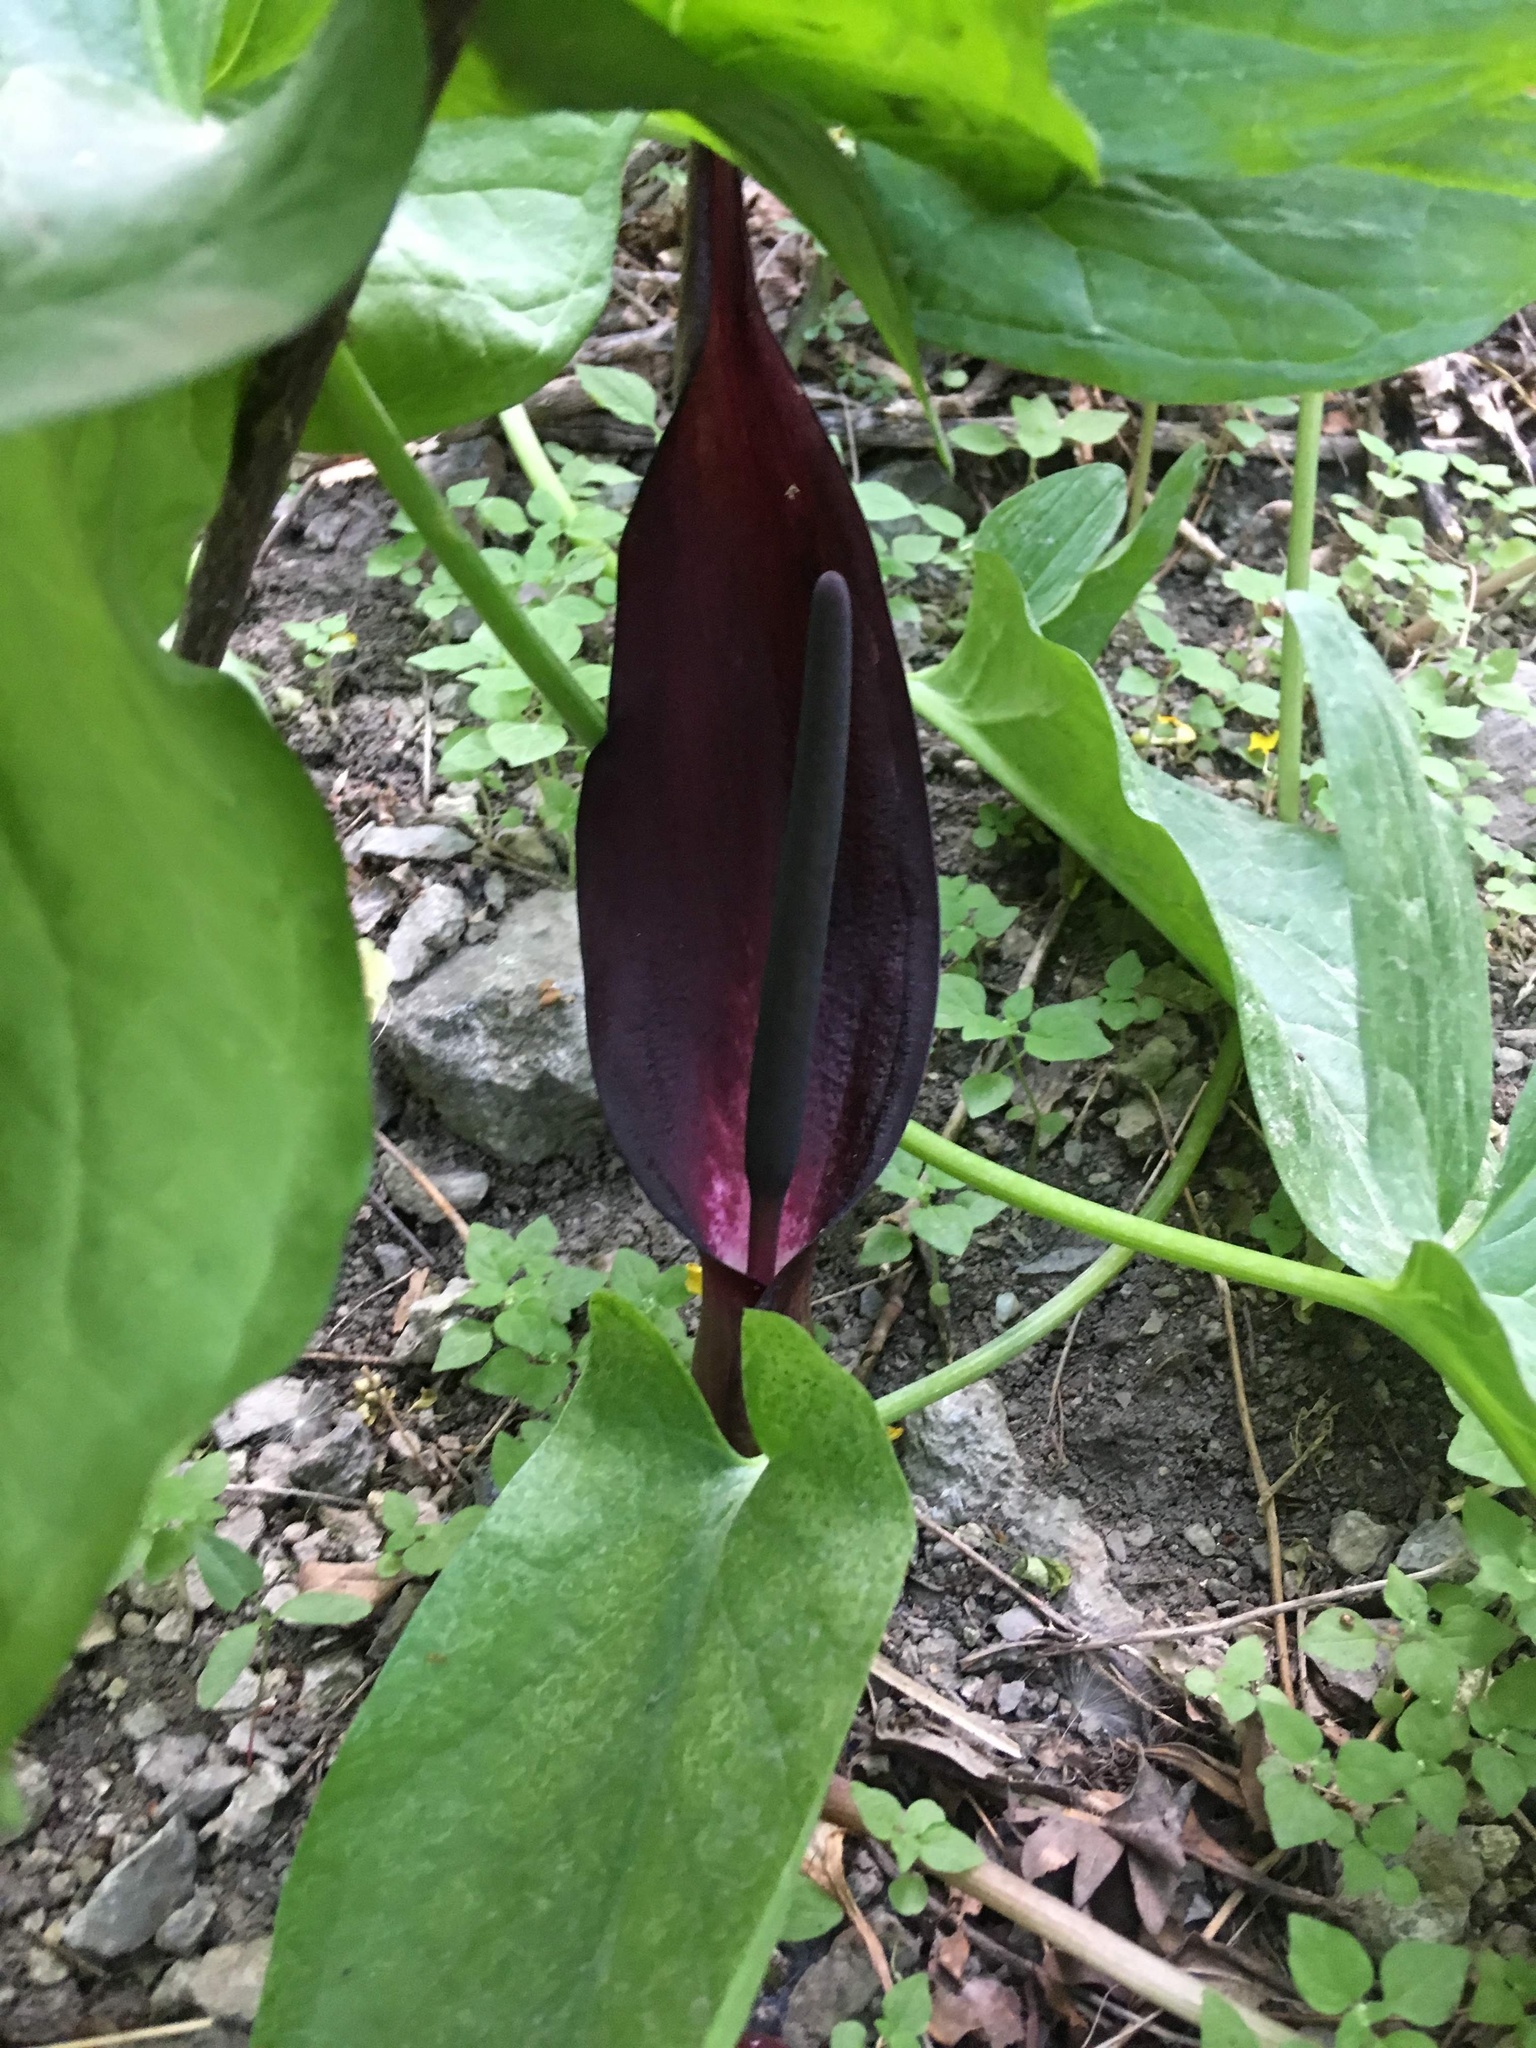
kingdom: Plantae
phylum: Tracheophyta
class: Liliopsida
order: Alismatales
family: Araceae
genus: Arum
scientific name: Arum orientale
